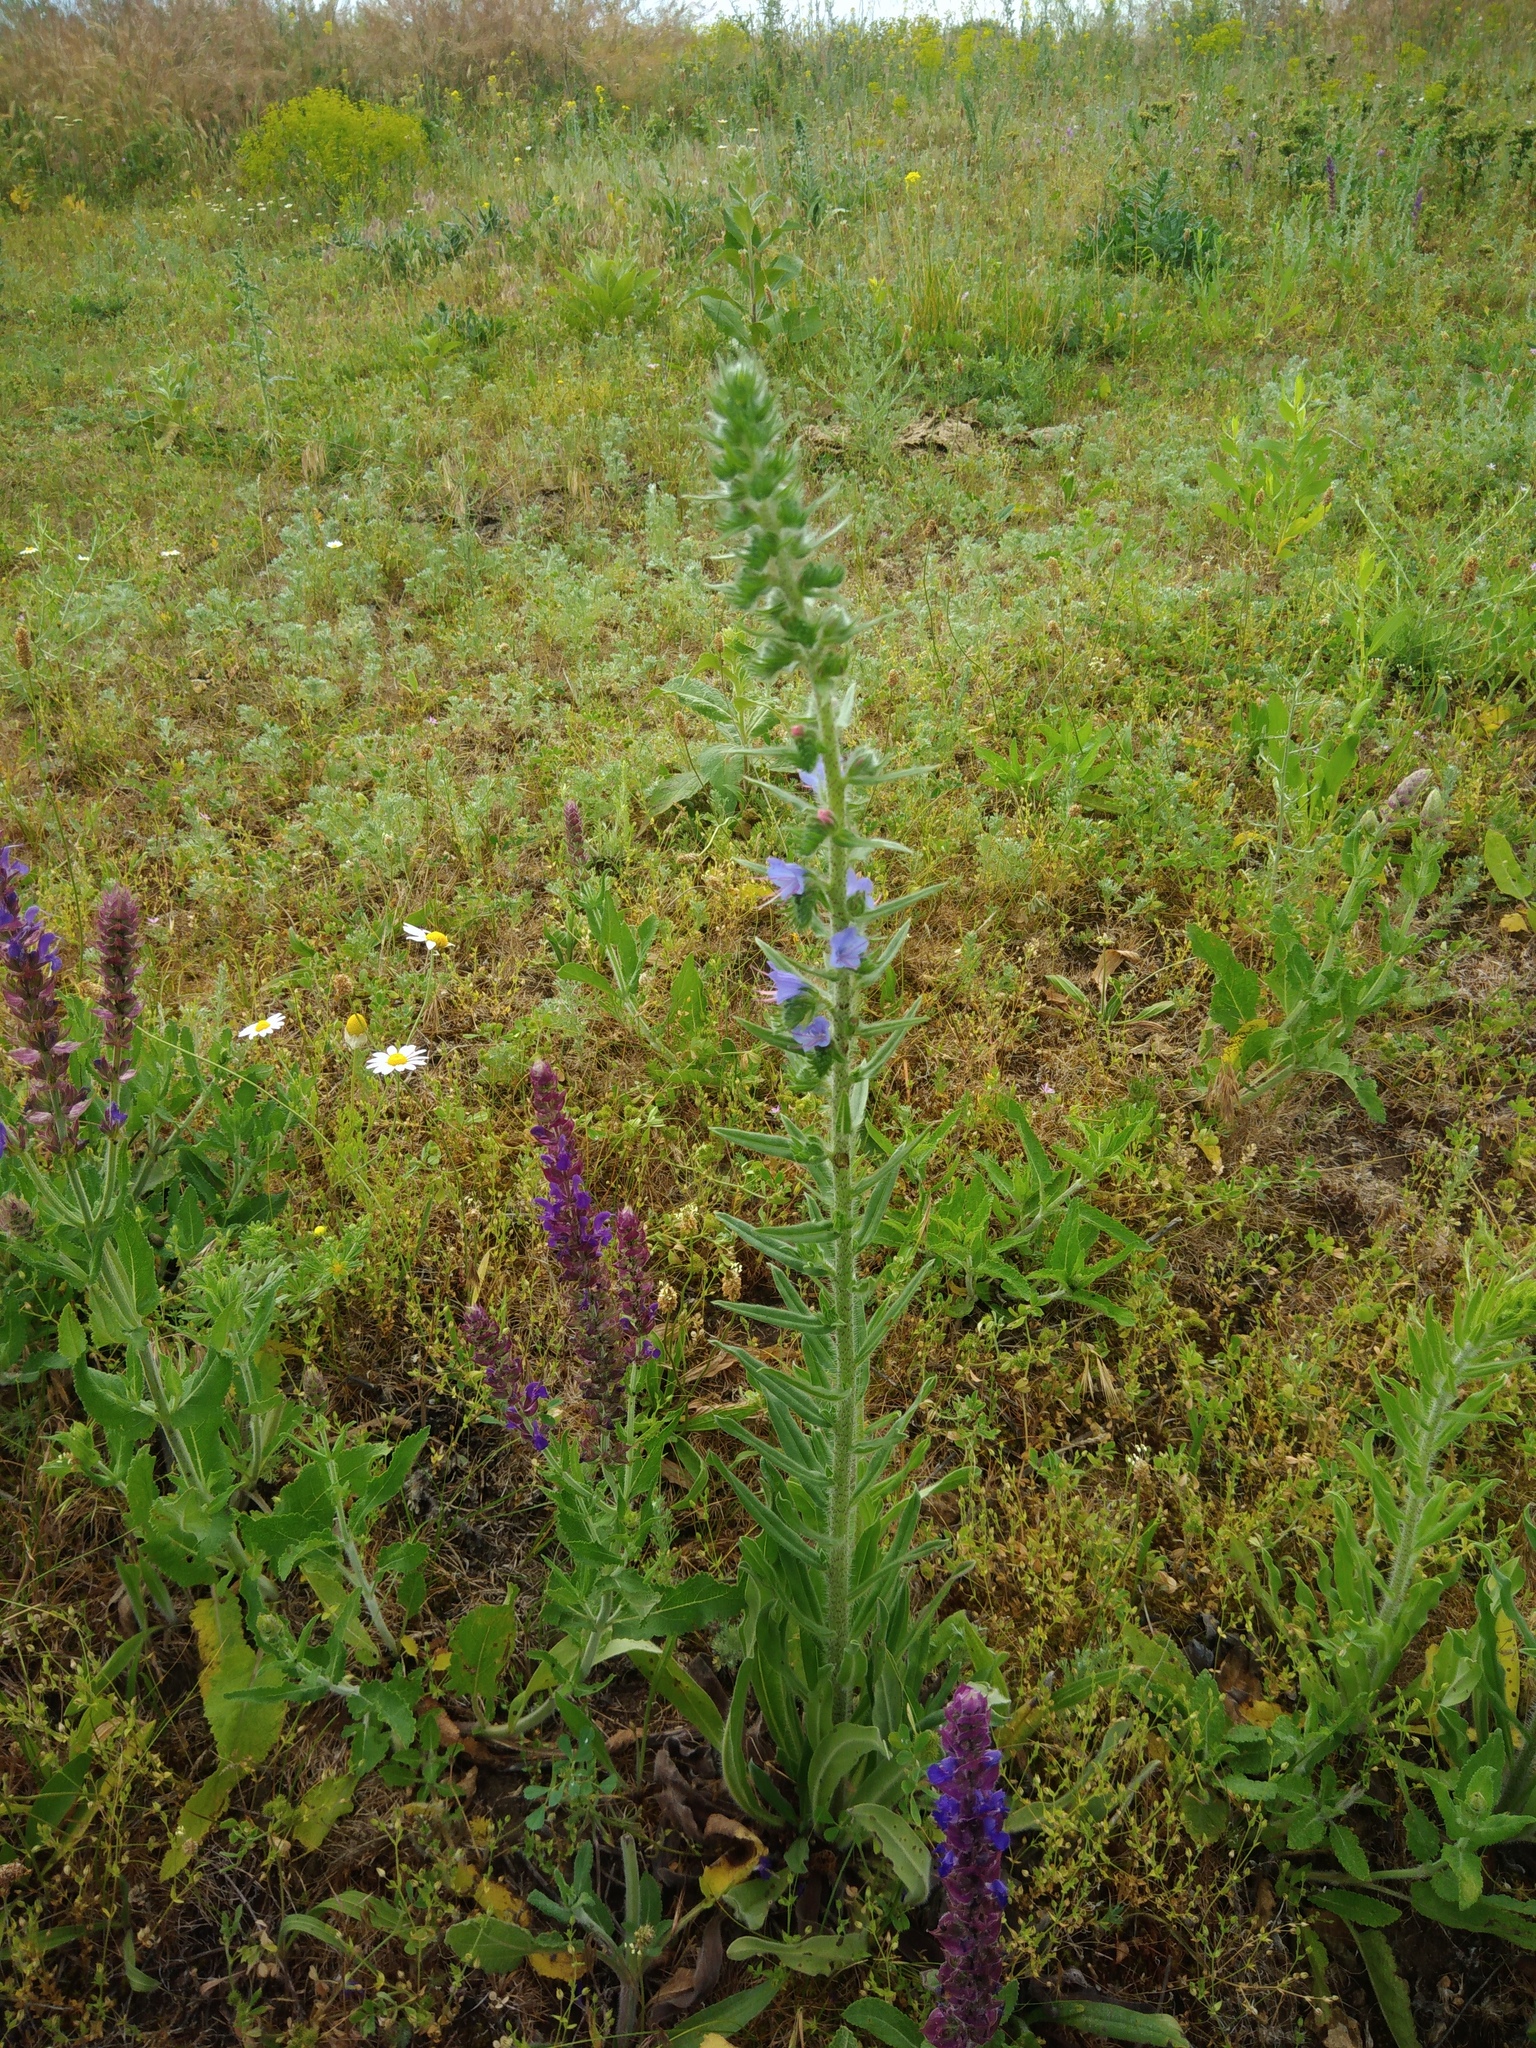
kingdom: Plantae
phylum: Tracheophyta
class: Magnoliopsida
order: Boraginales
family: Boraginaceae
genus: Echium
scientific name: Echium vulgare
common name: Common viper's bugloss
